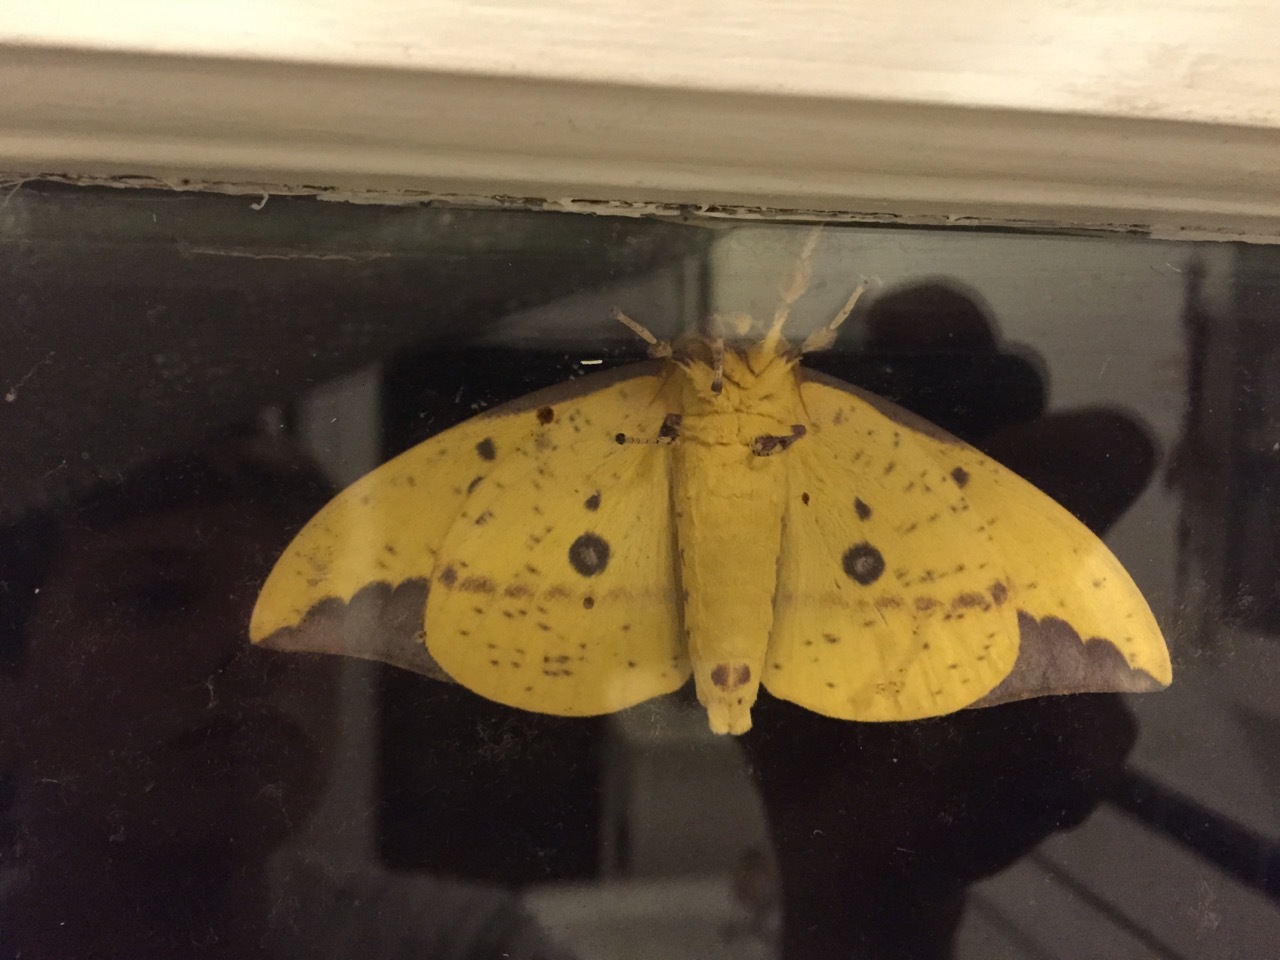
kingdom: Animalia
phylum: Arthropoda
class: Insecta
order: Lepidoptera
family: Saturniidae
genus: Eacles
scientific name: Eacles imperialis
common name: Imperial moth
